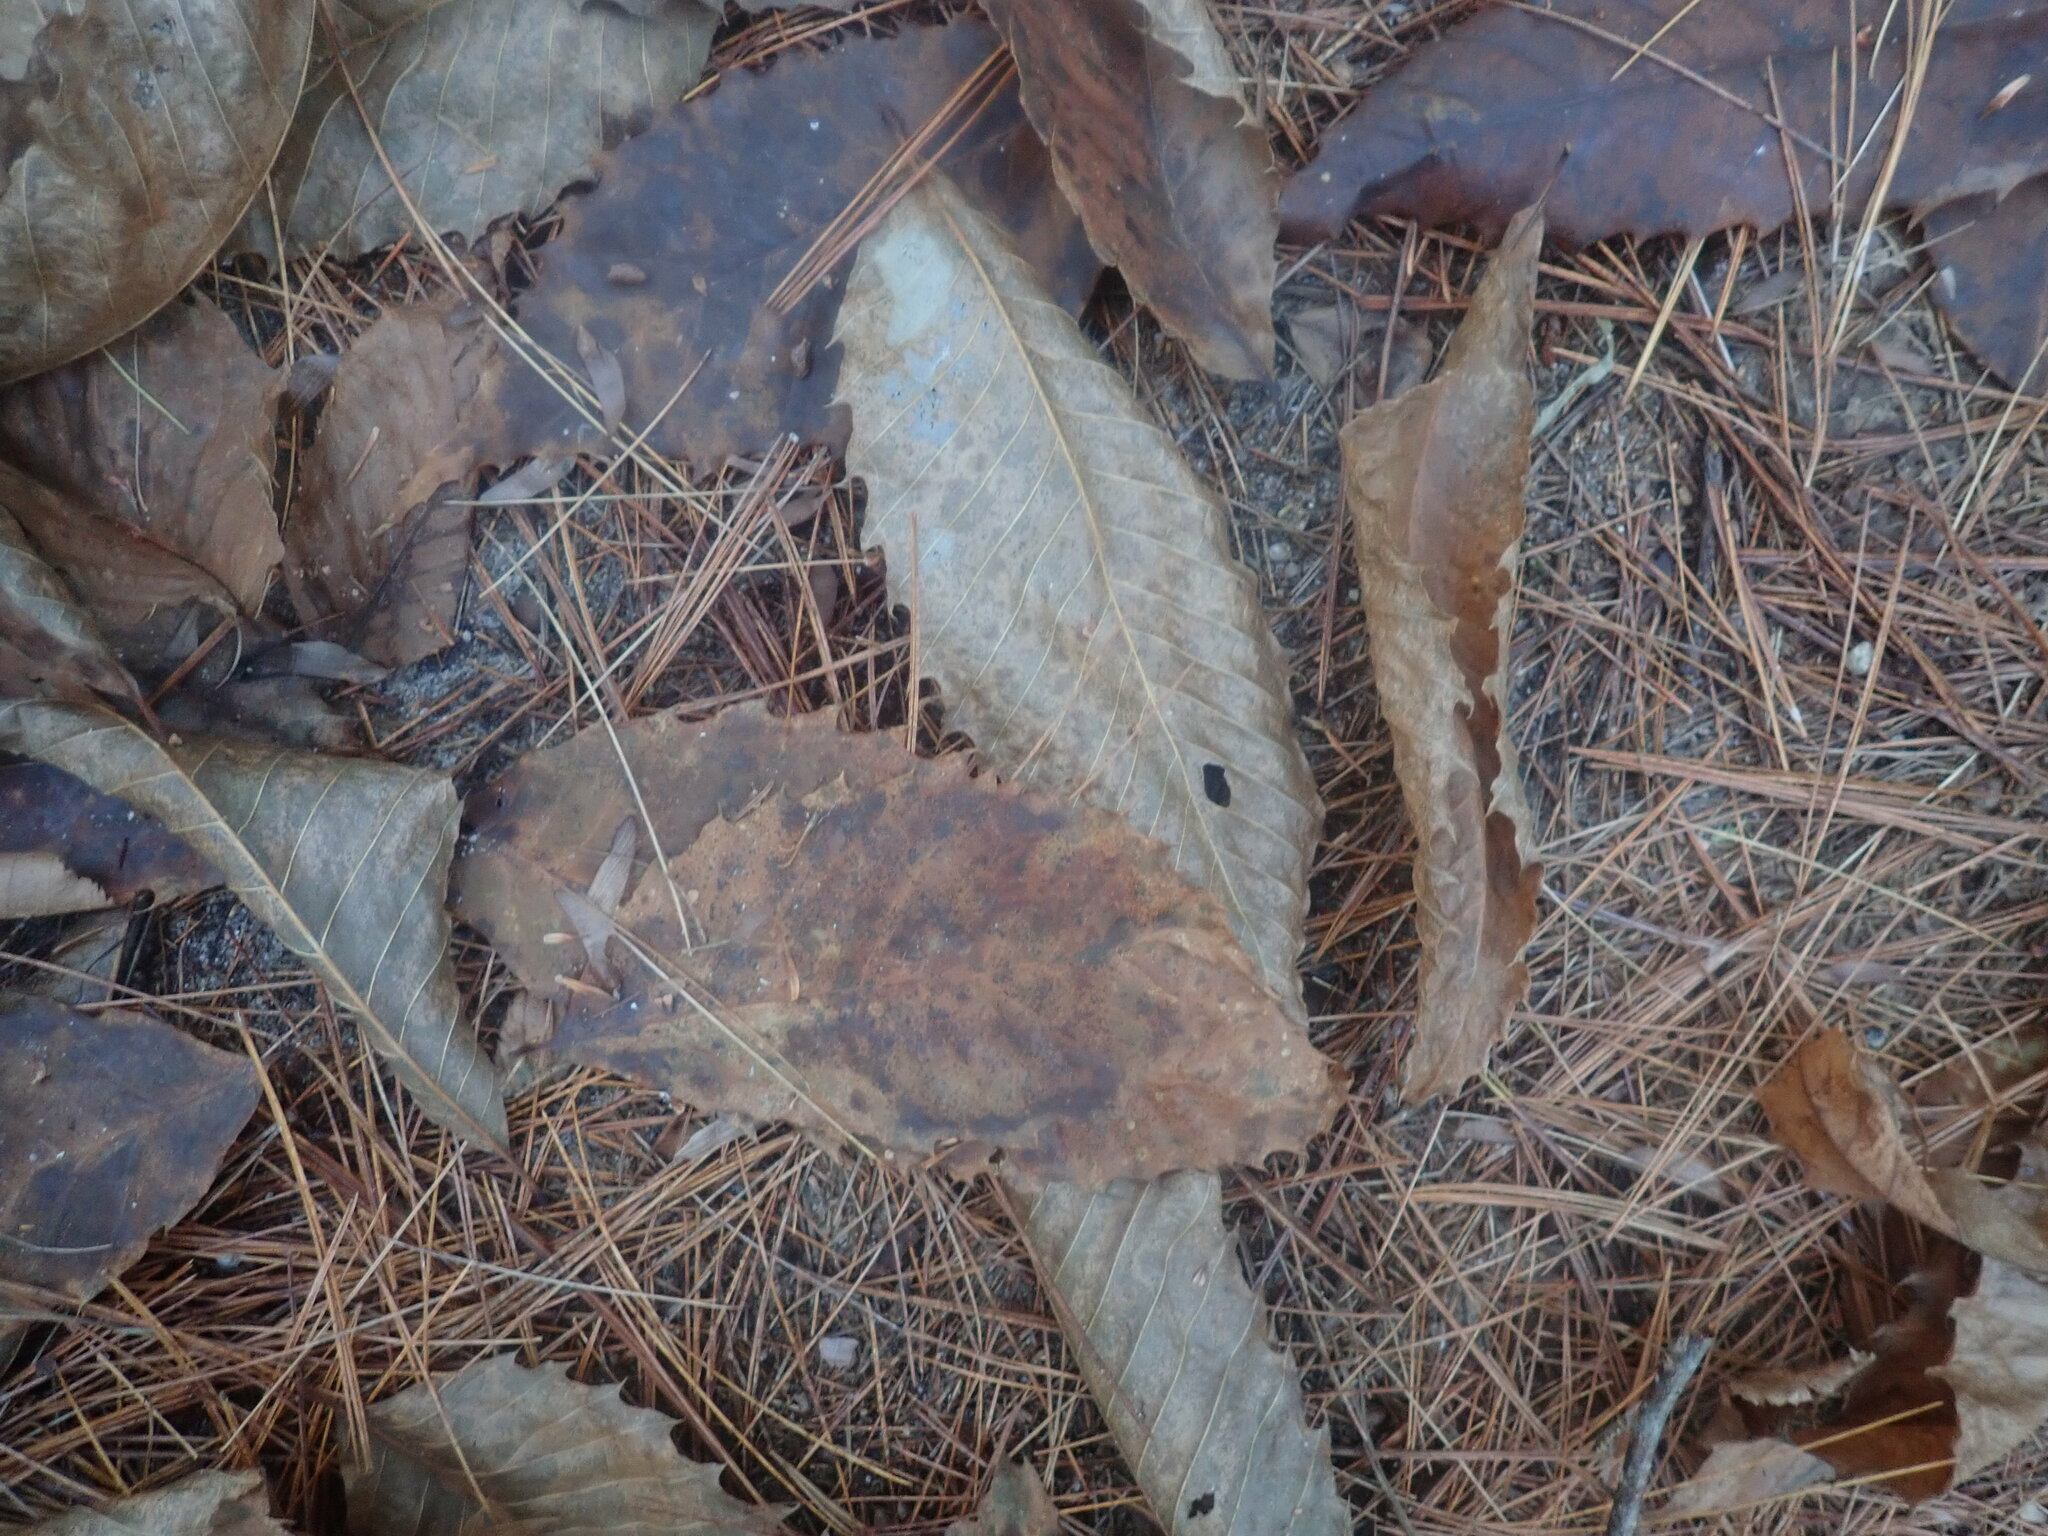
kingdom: Plantae
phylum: Tracheophyta
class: Magnoliopsida
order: Fagales
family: Fagaceae
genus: Castanea
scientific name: Castanea dentata
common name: American chestnut
